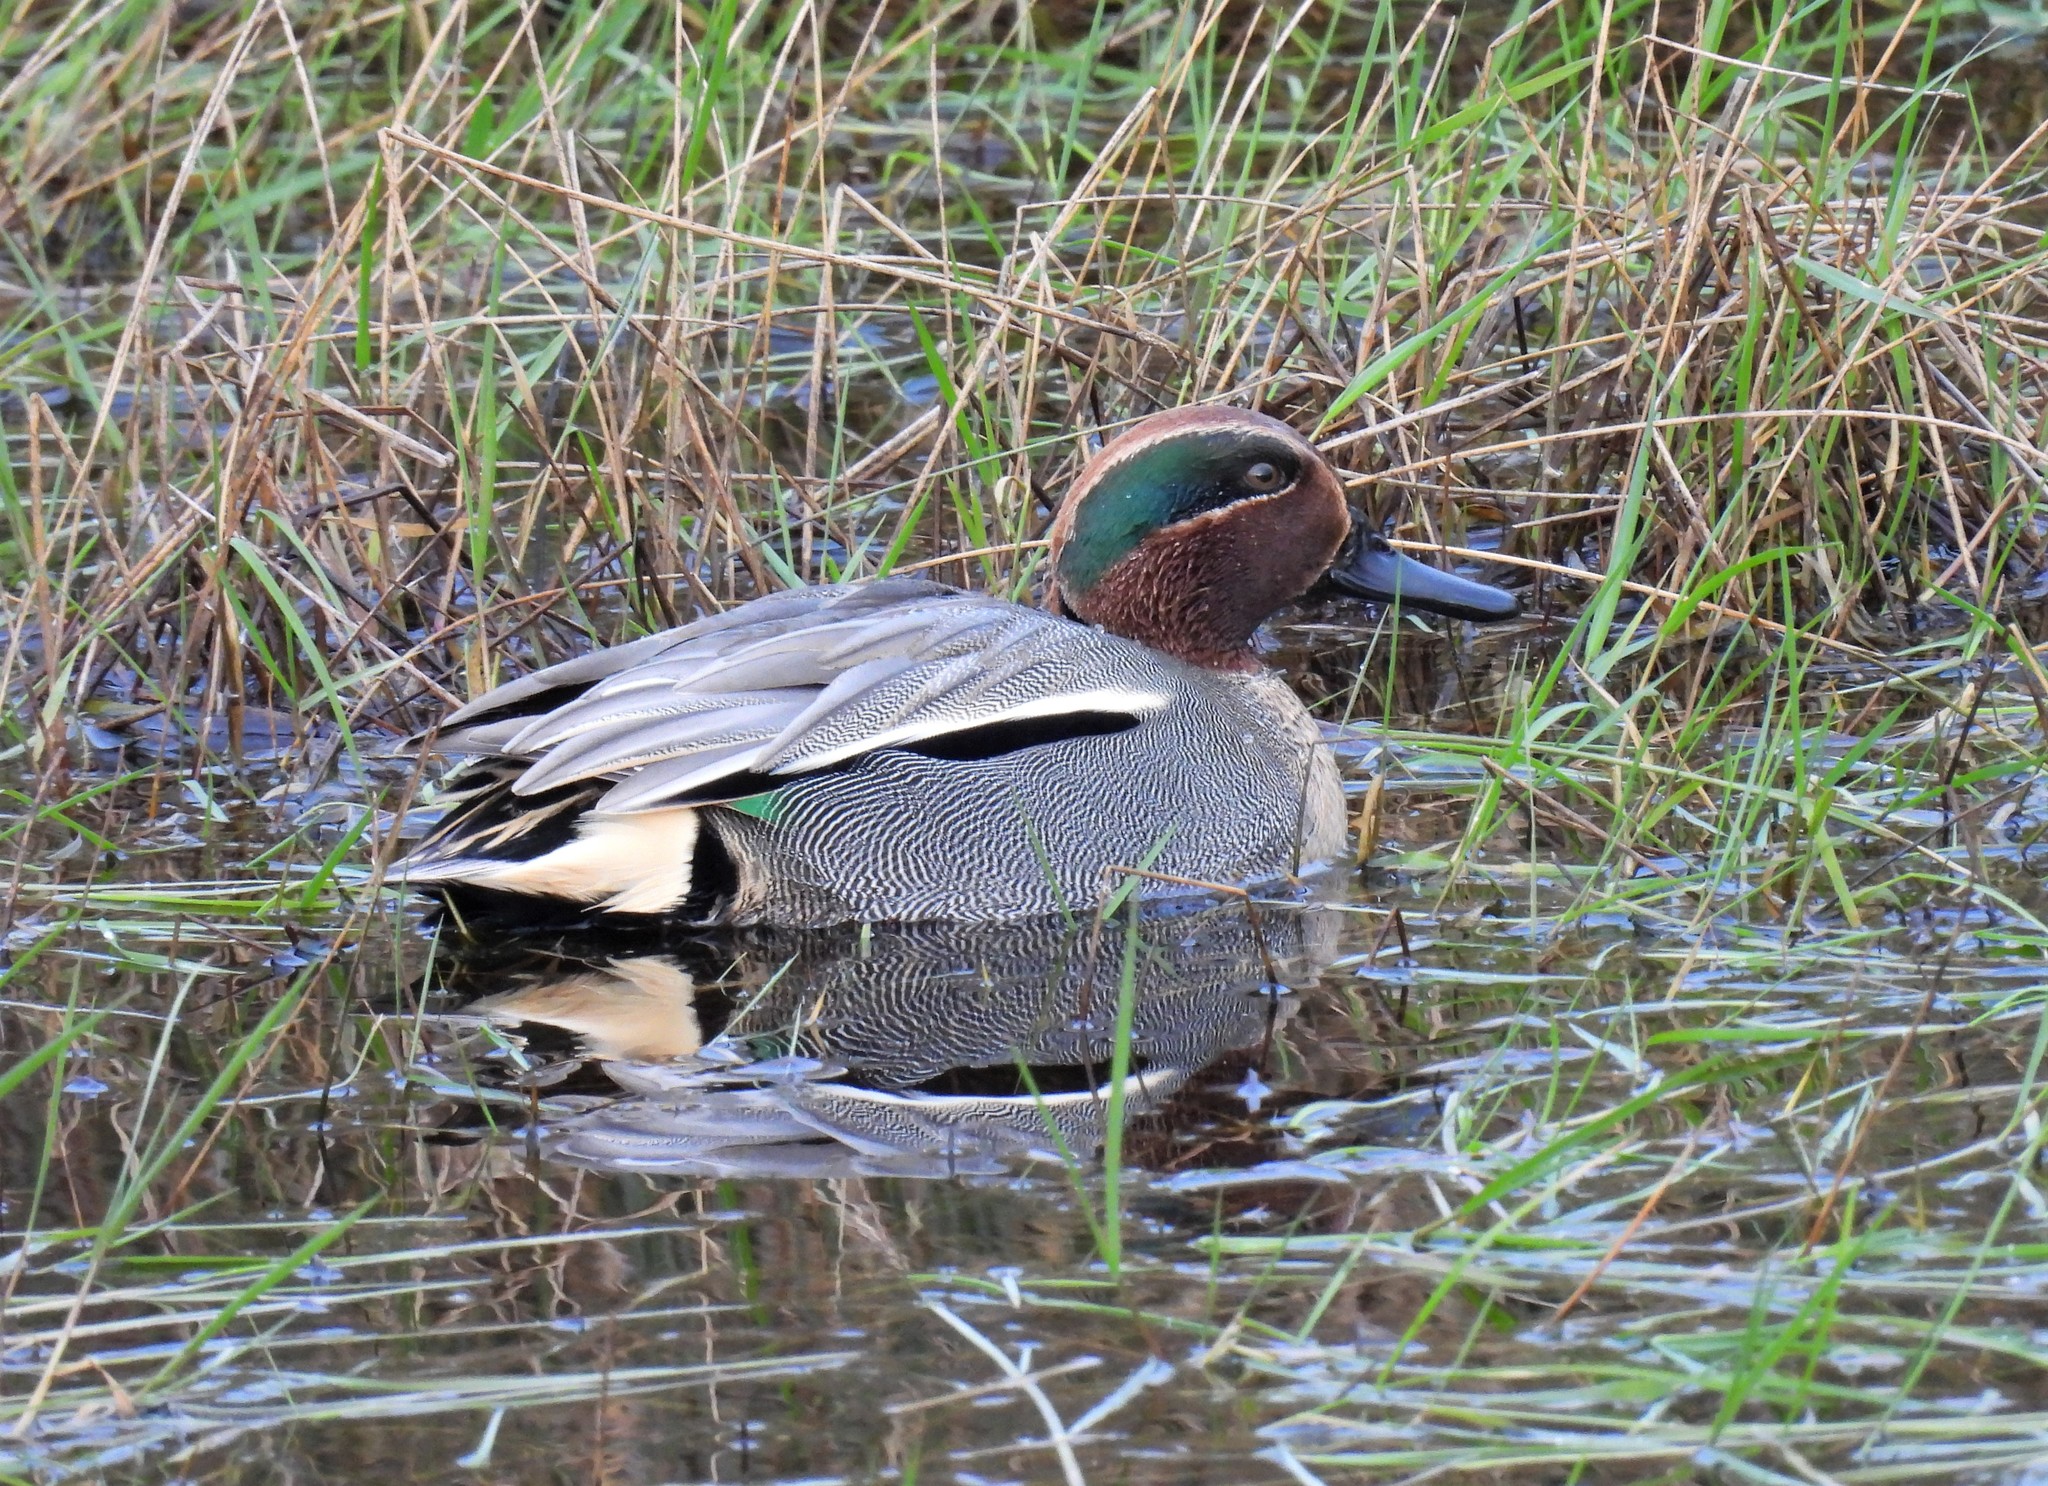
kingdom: Animalia
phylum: Chordata
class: Aves
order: Anseriformes
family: Anatidae
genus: Anas
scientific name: Anas crecca
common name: Eurasian teal
